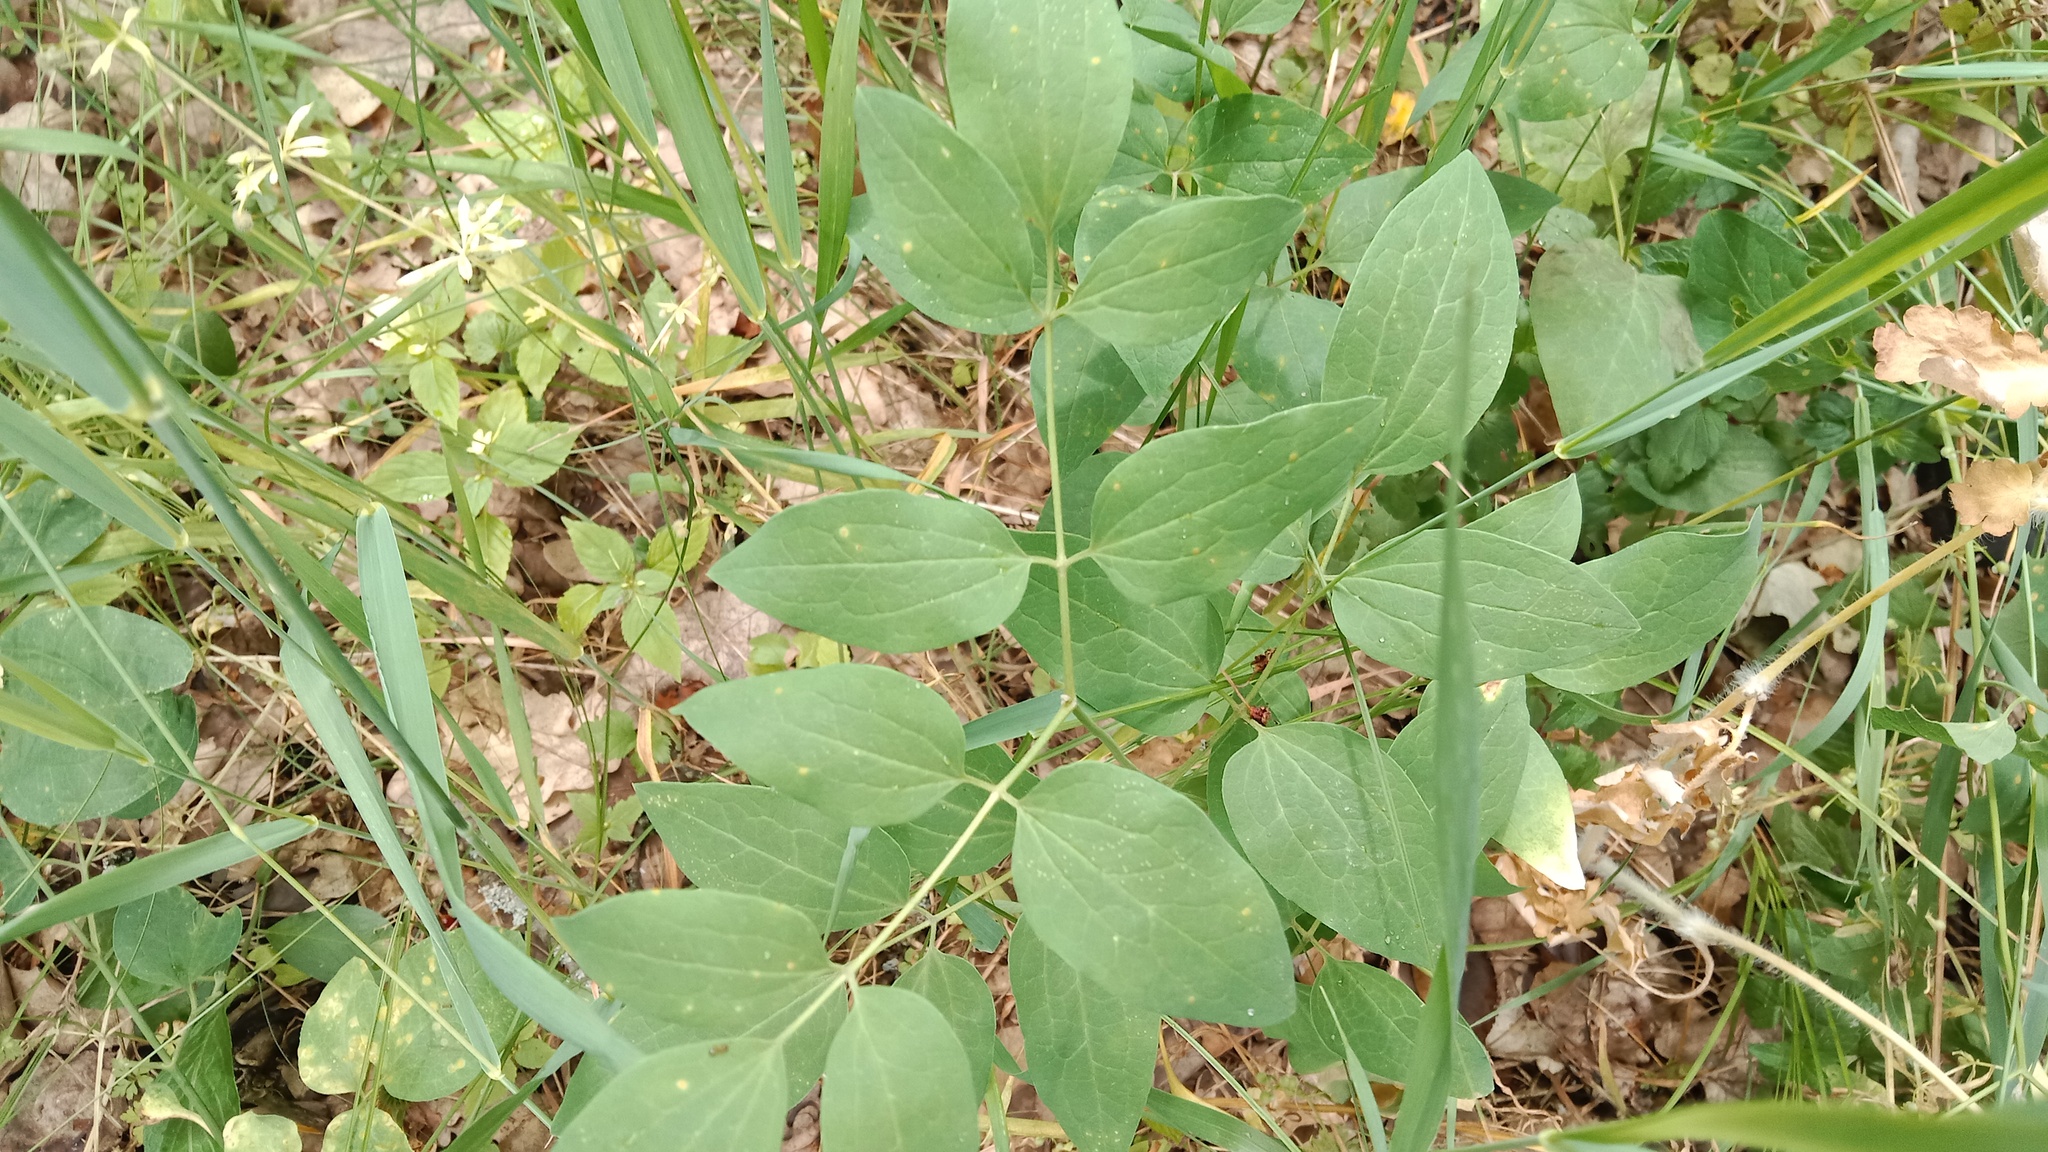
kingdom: Plantae
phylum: Tracheophyta
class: Magnoliopsida
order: Ranunculales
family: Ranunculaceae
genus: Clematis
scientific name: Clematis recta
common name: Ground clematis
